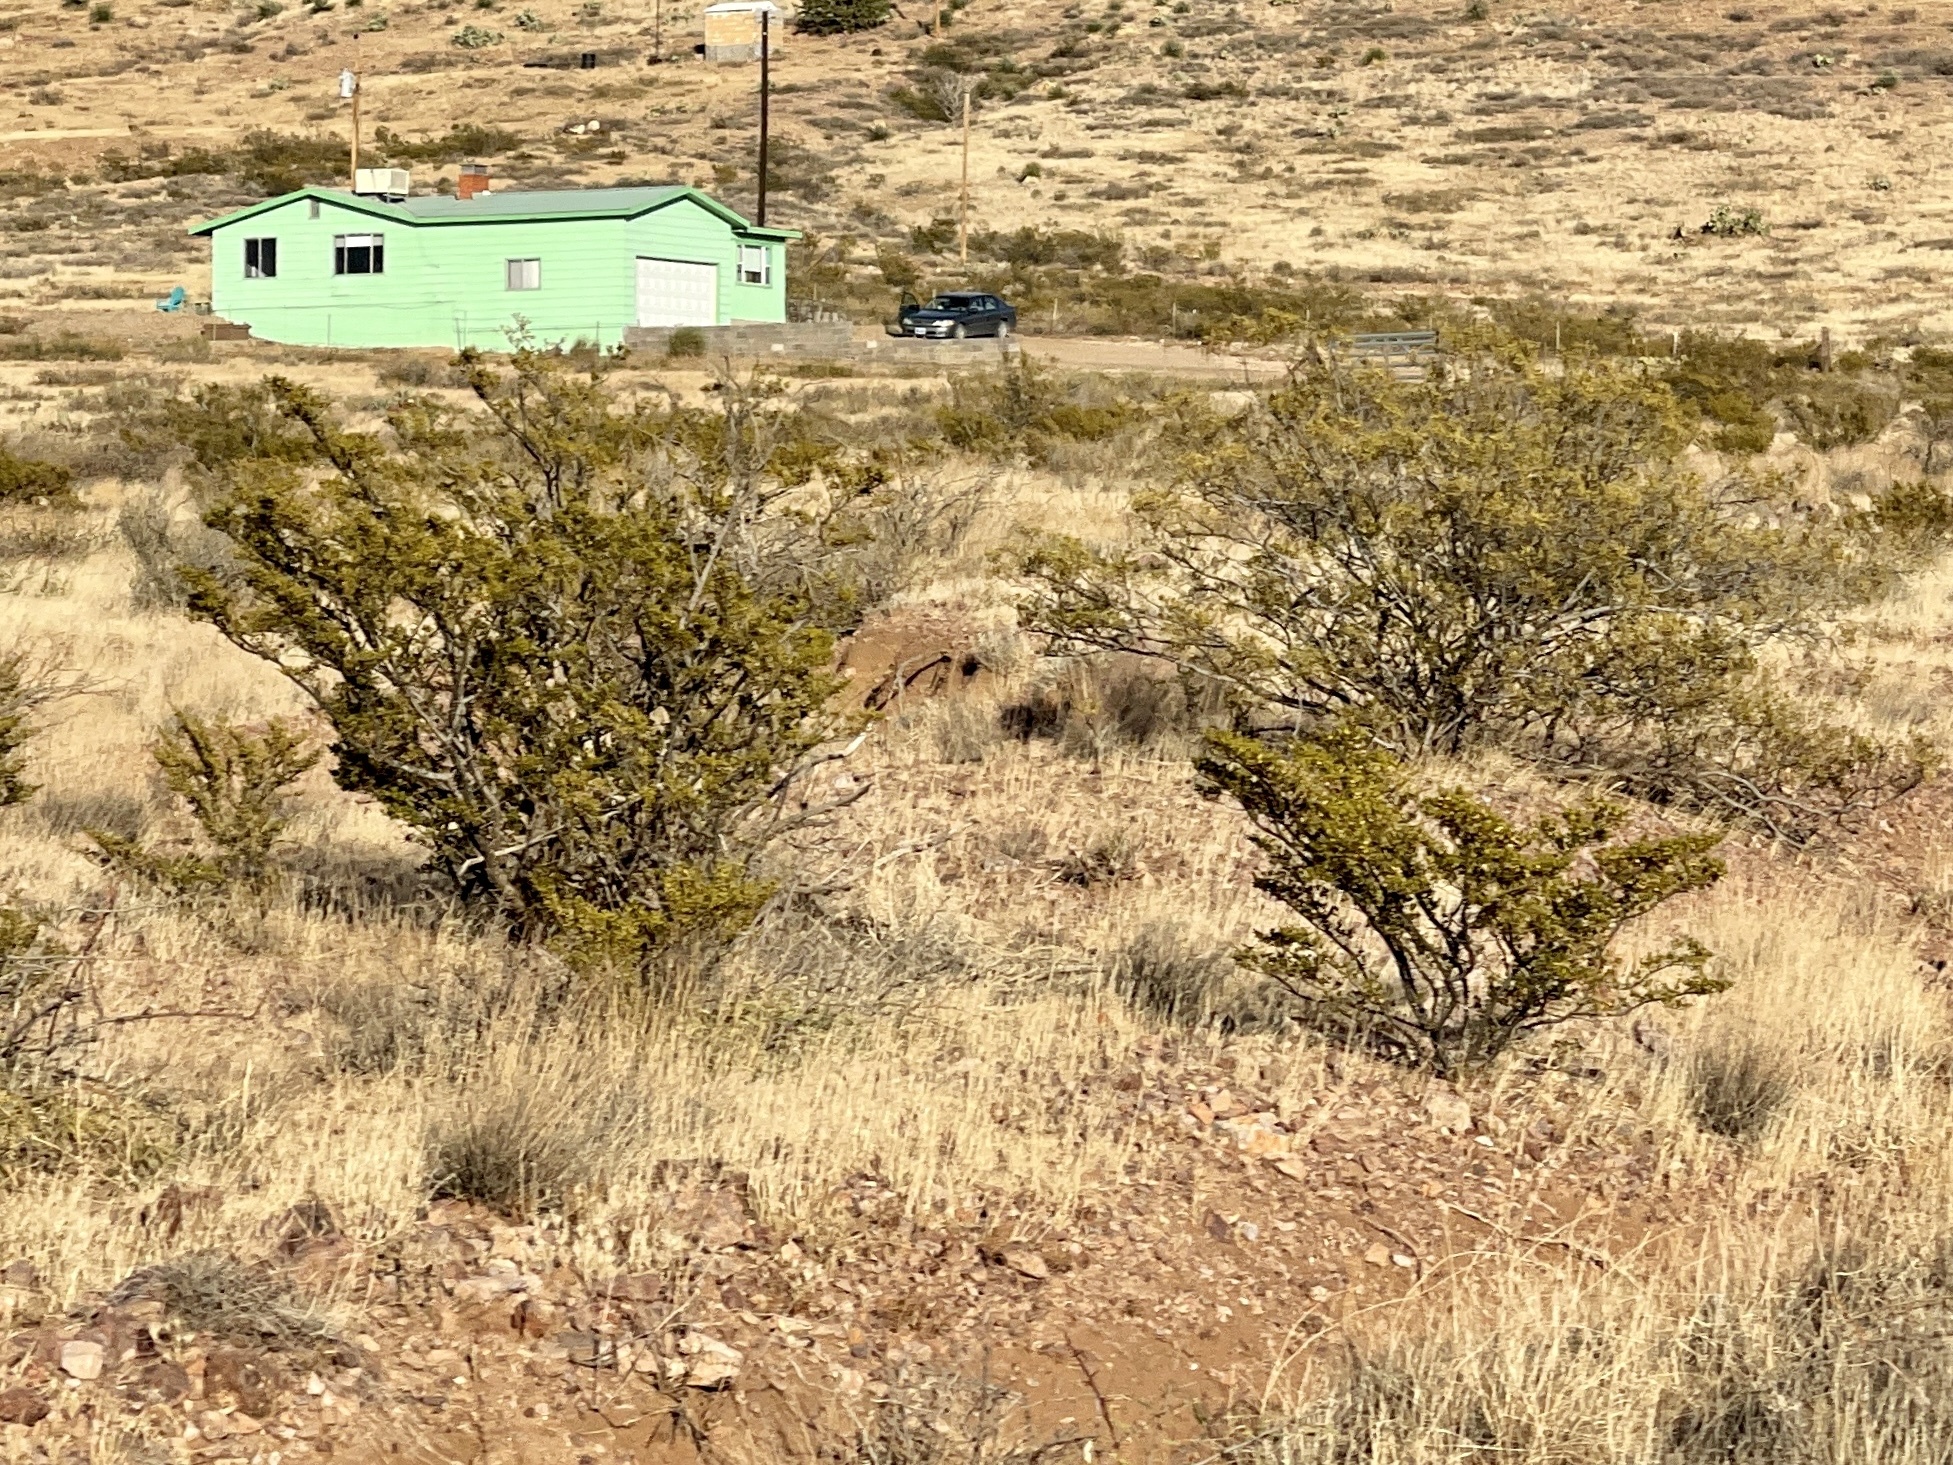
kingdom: Plantae
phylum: Tracheophyta
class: Magnoliopsida
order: Zygophyllales
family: Zygophyllaceae
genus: Larrea
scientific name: Larrea tridentata
